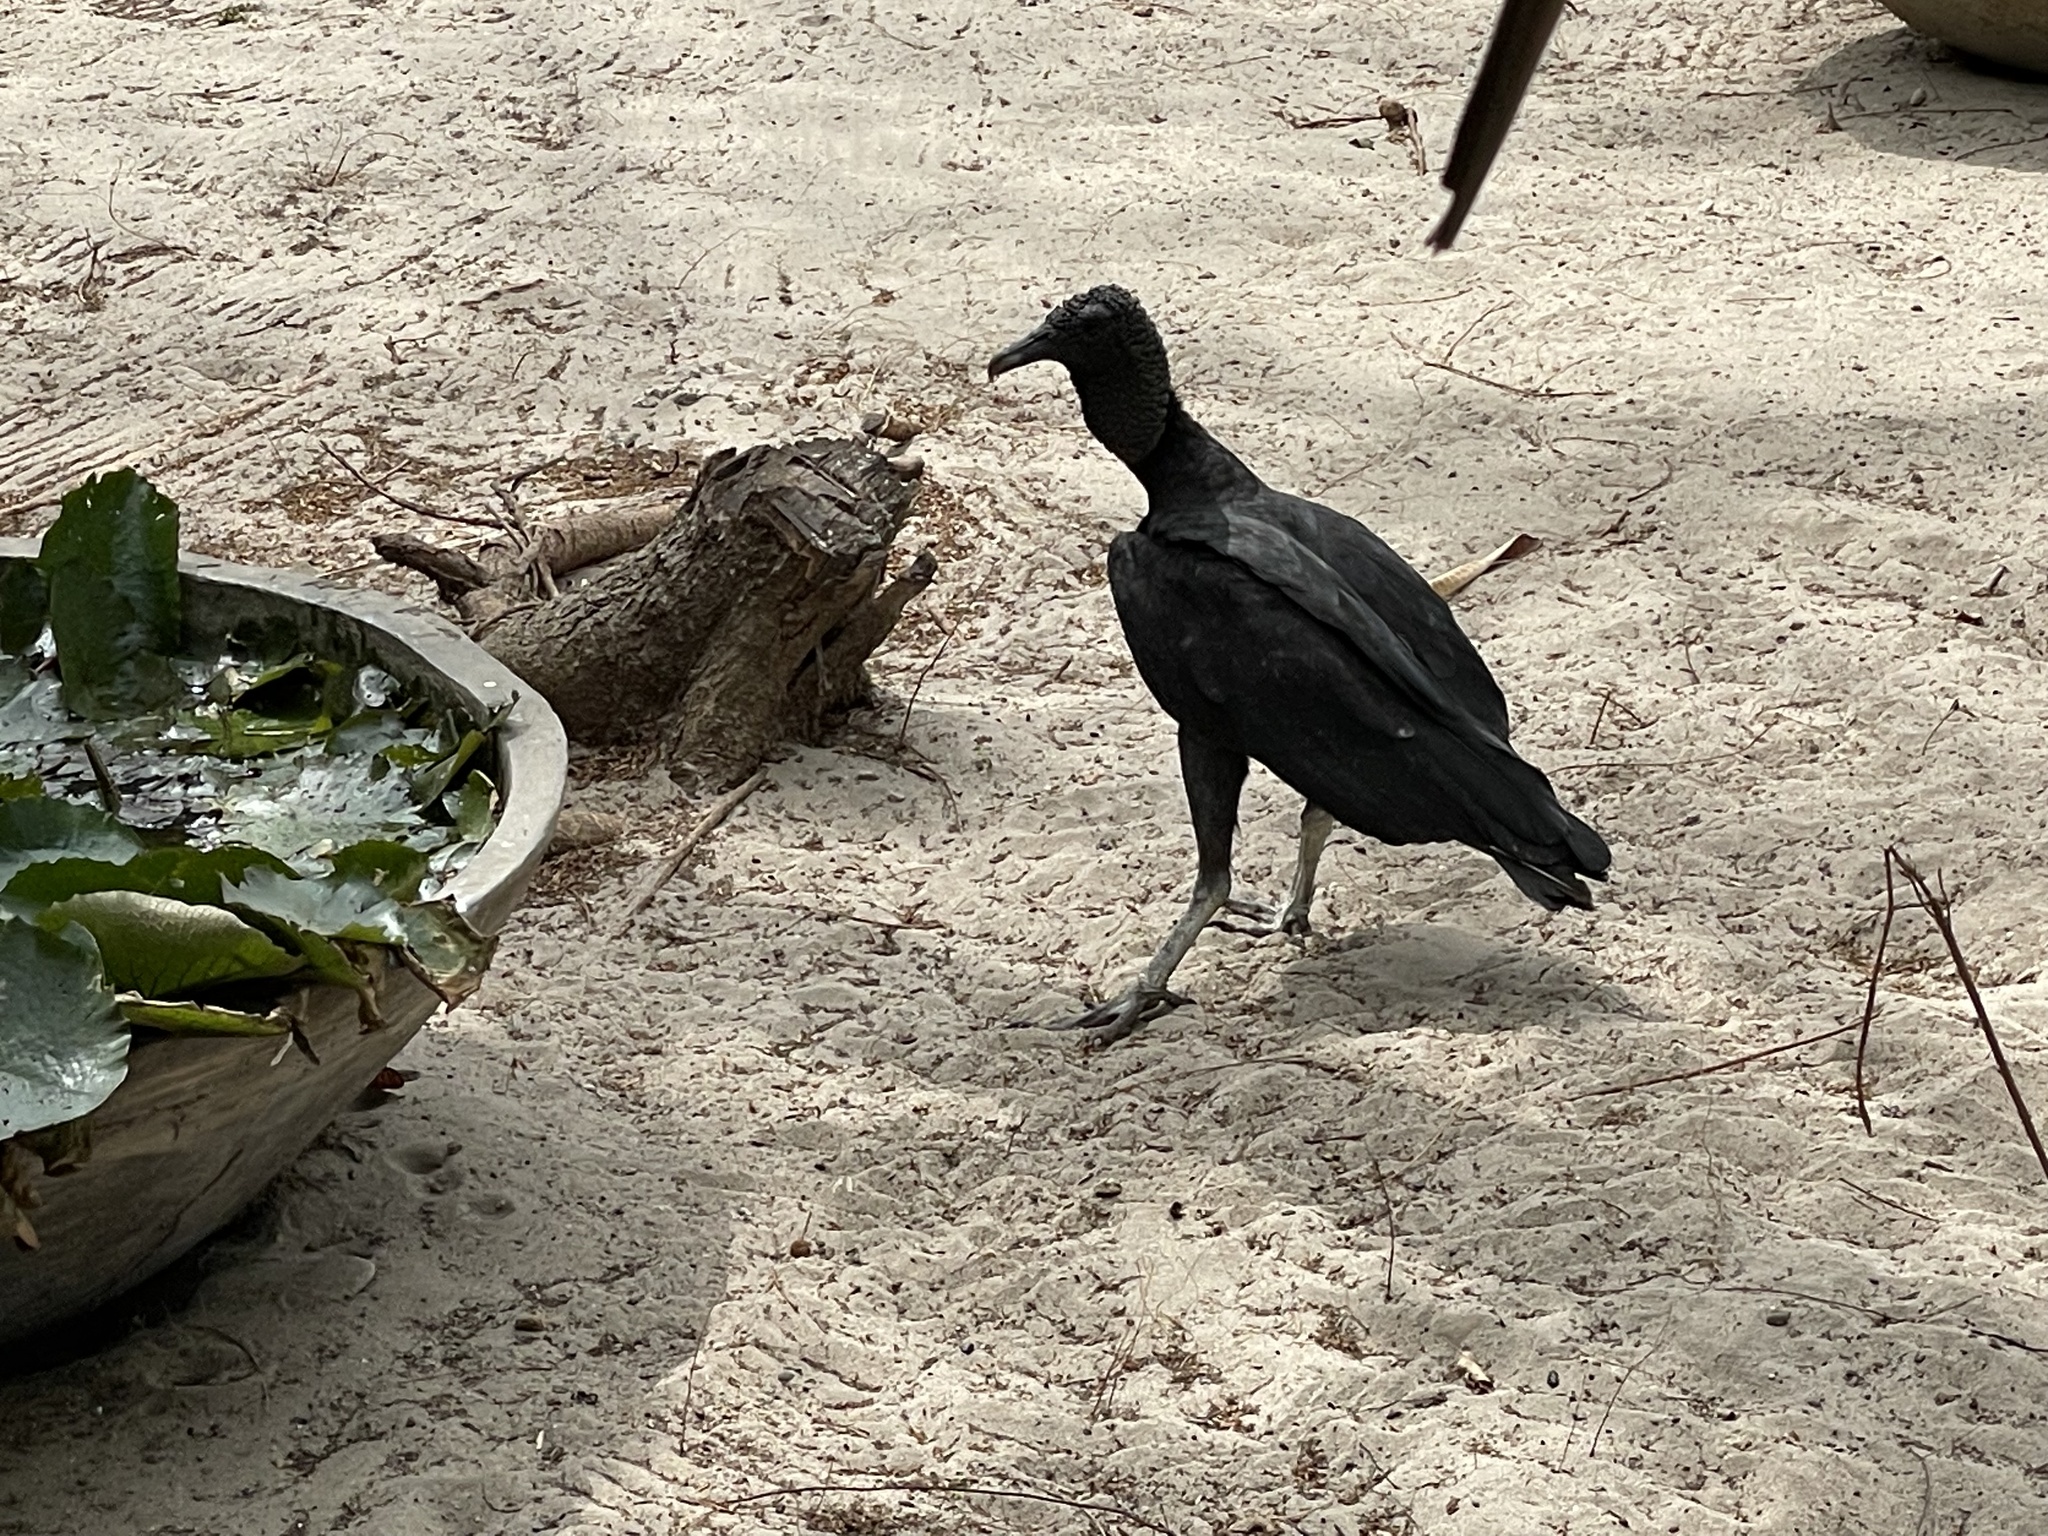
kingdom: Animalia
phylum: Chordata
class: Aves
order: Accipitriformes
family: Cathartidae
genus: Coragyps
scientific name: Coragyps atratus
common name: Black vulture
